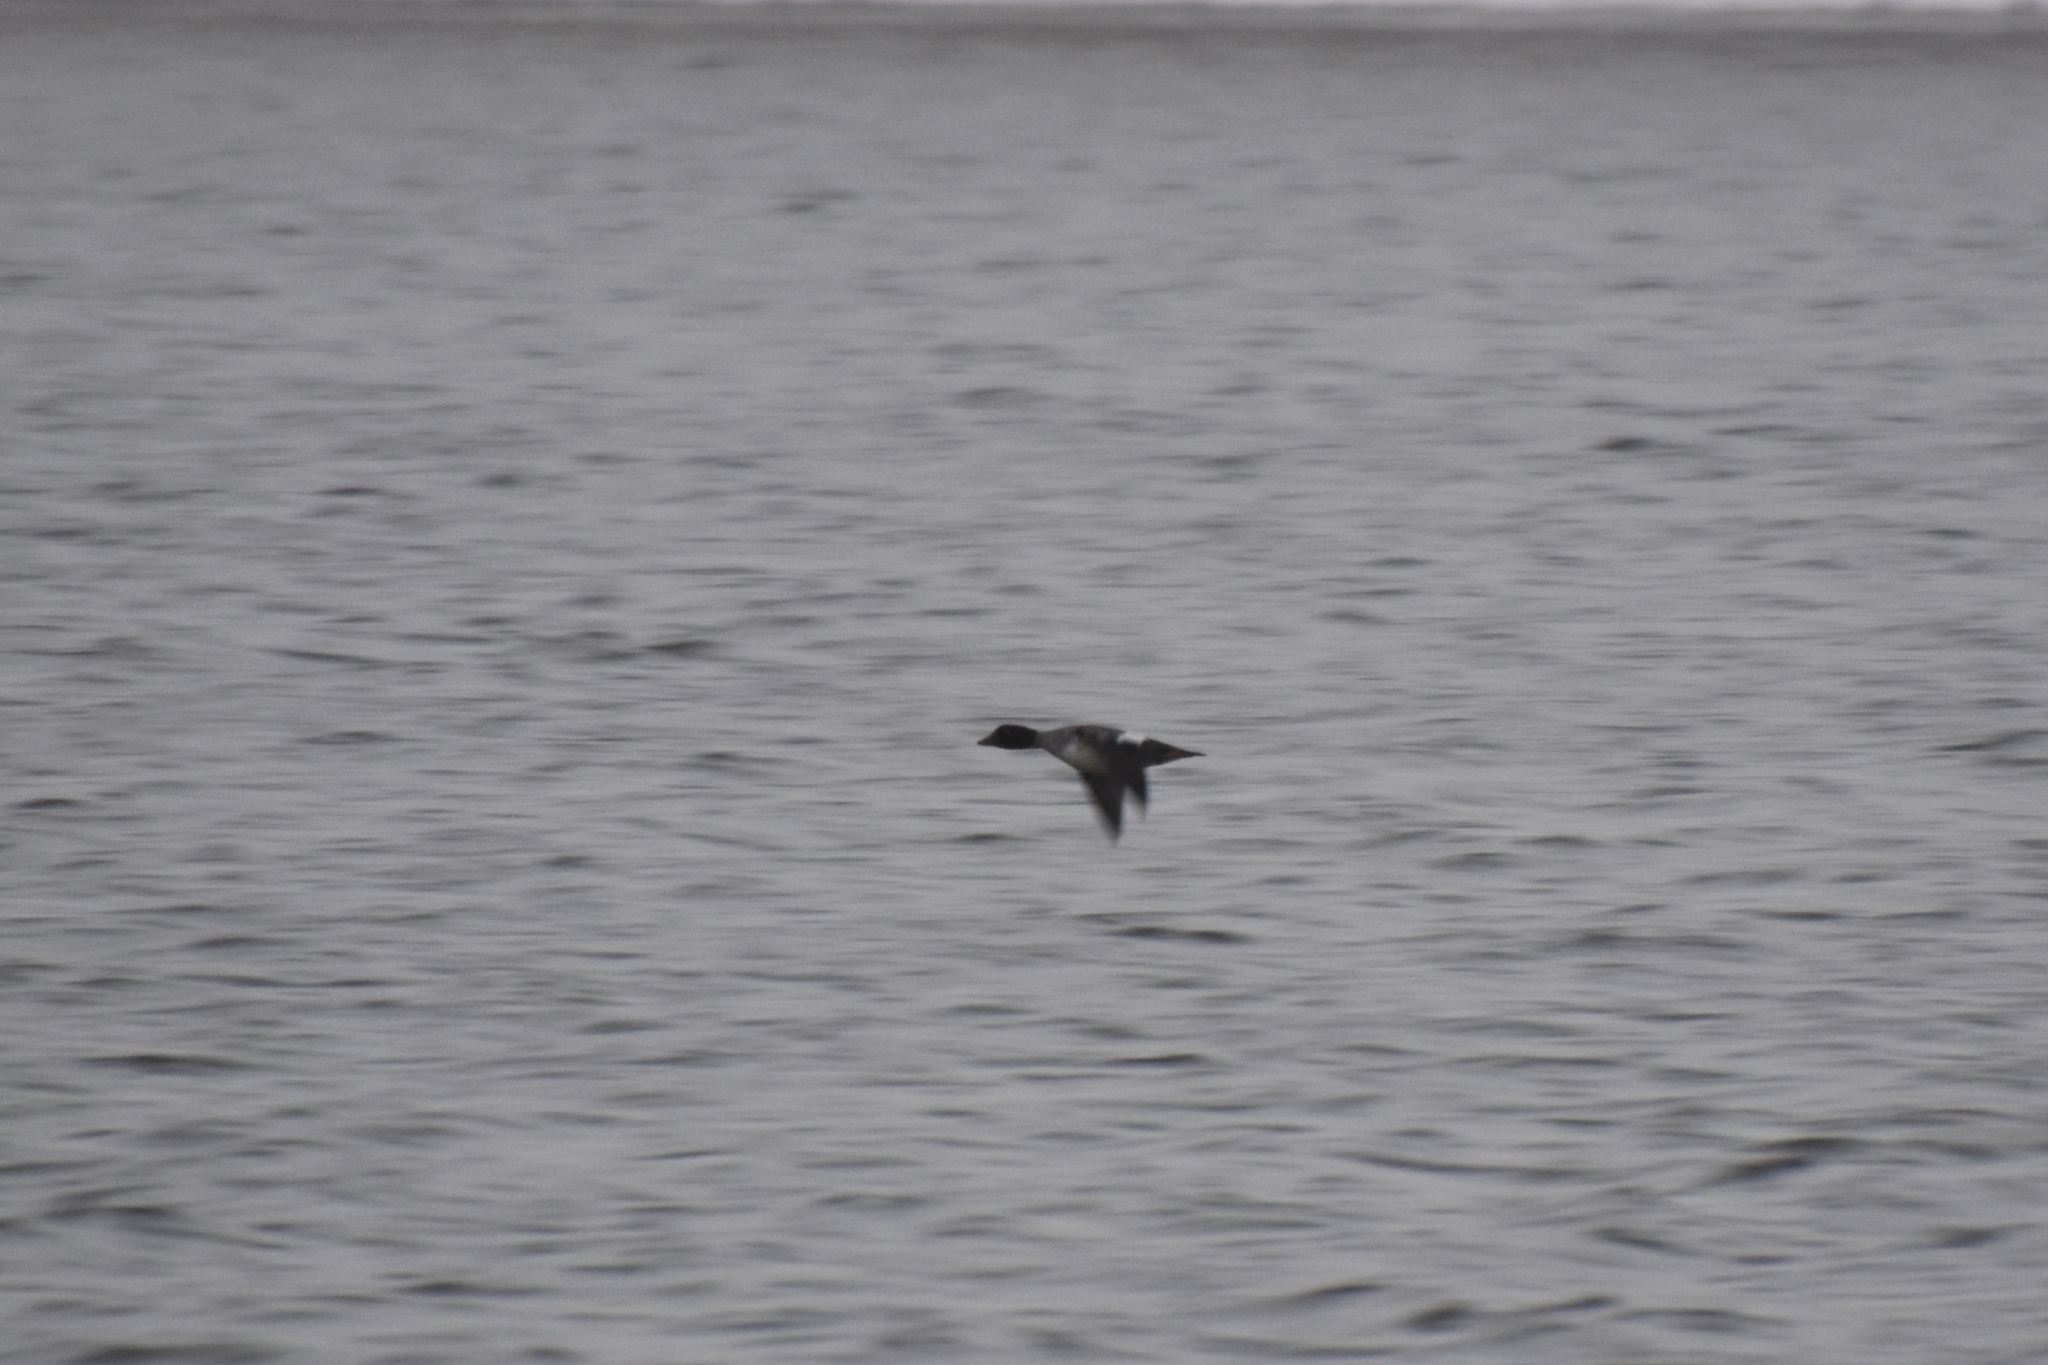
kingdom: Animalia
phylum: Chordata
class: Aves
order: Anseriformes
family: Anatidae
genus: Bucephala
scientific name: Bucephala clangula
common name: Common goldeneye
